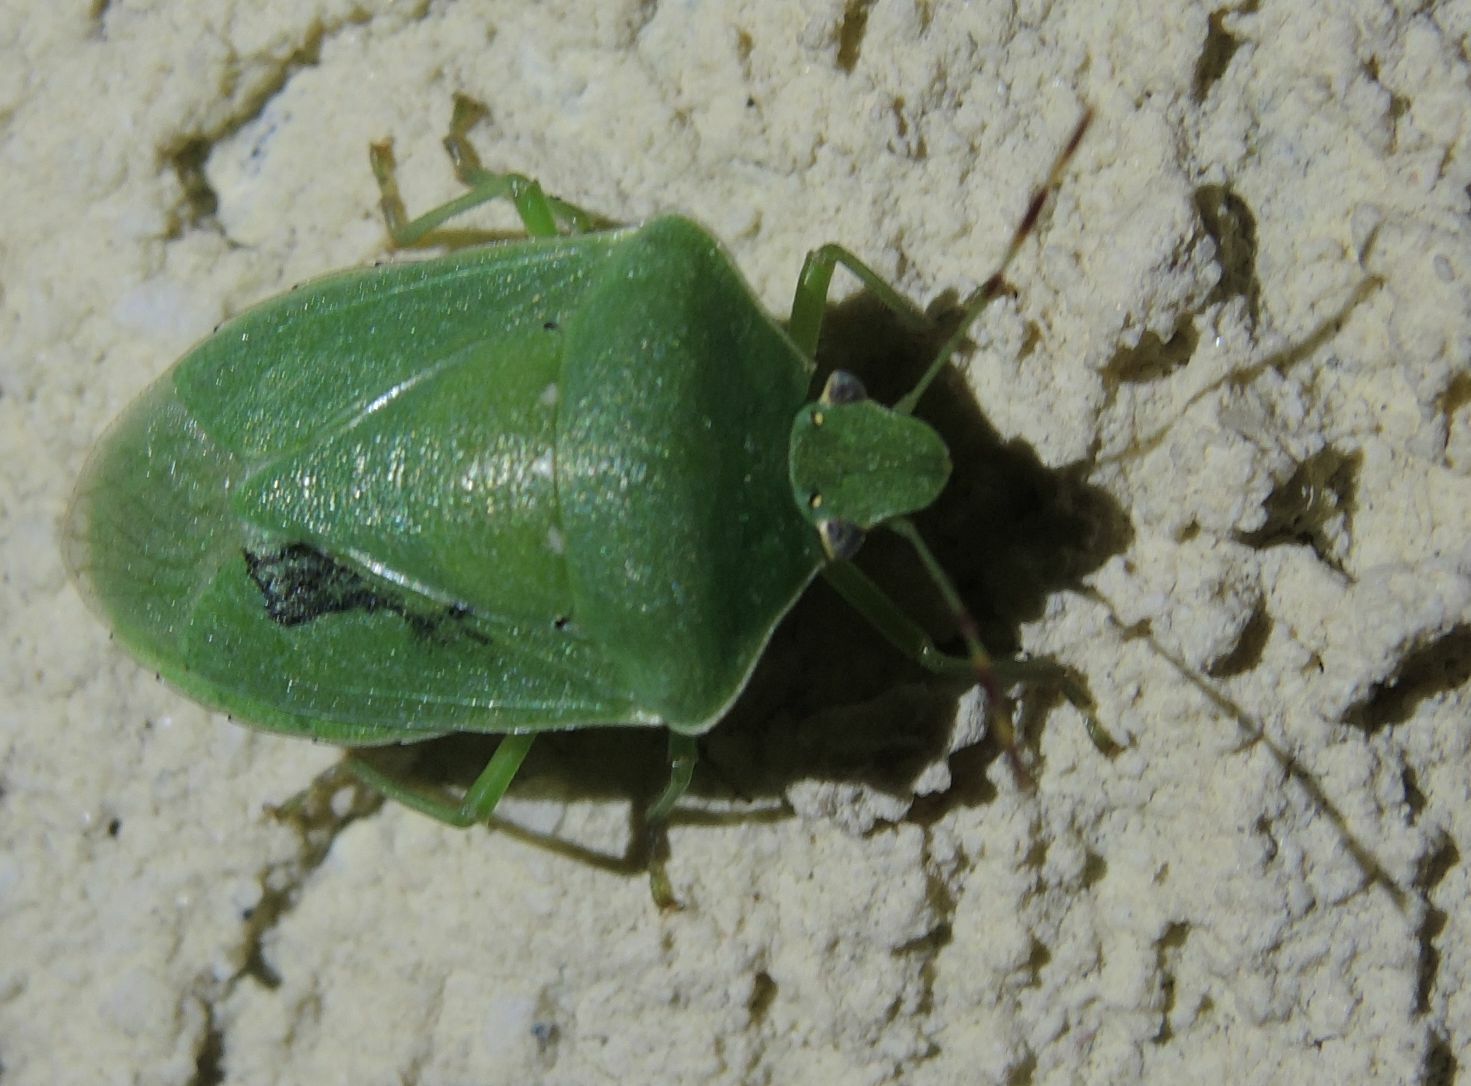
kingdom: Animalia
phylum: Arthropoda
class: Insecta
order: Hemiptera
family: Pentatomidae
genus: Nezara
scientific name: Nezara viridula
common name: Southern green stink bug
